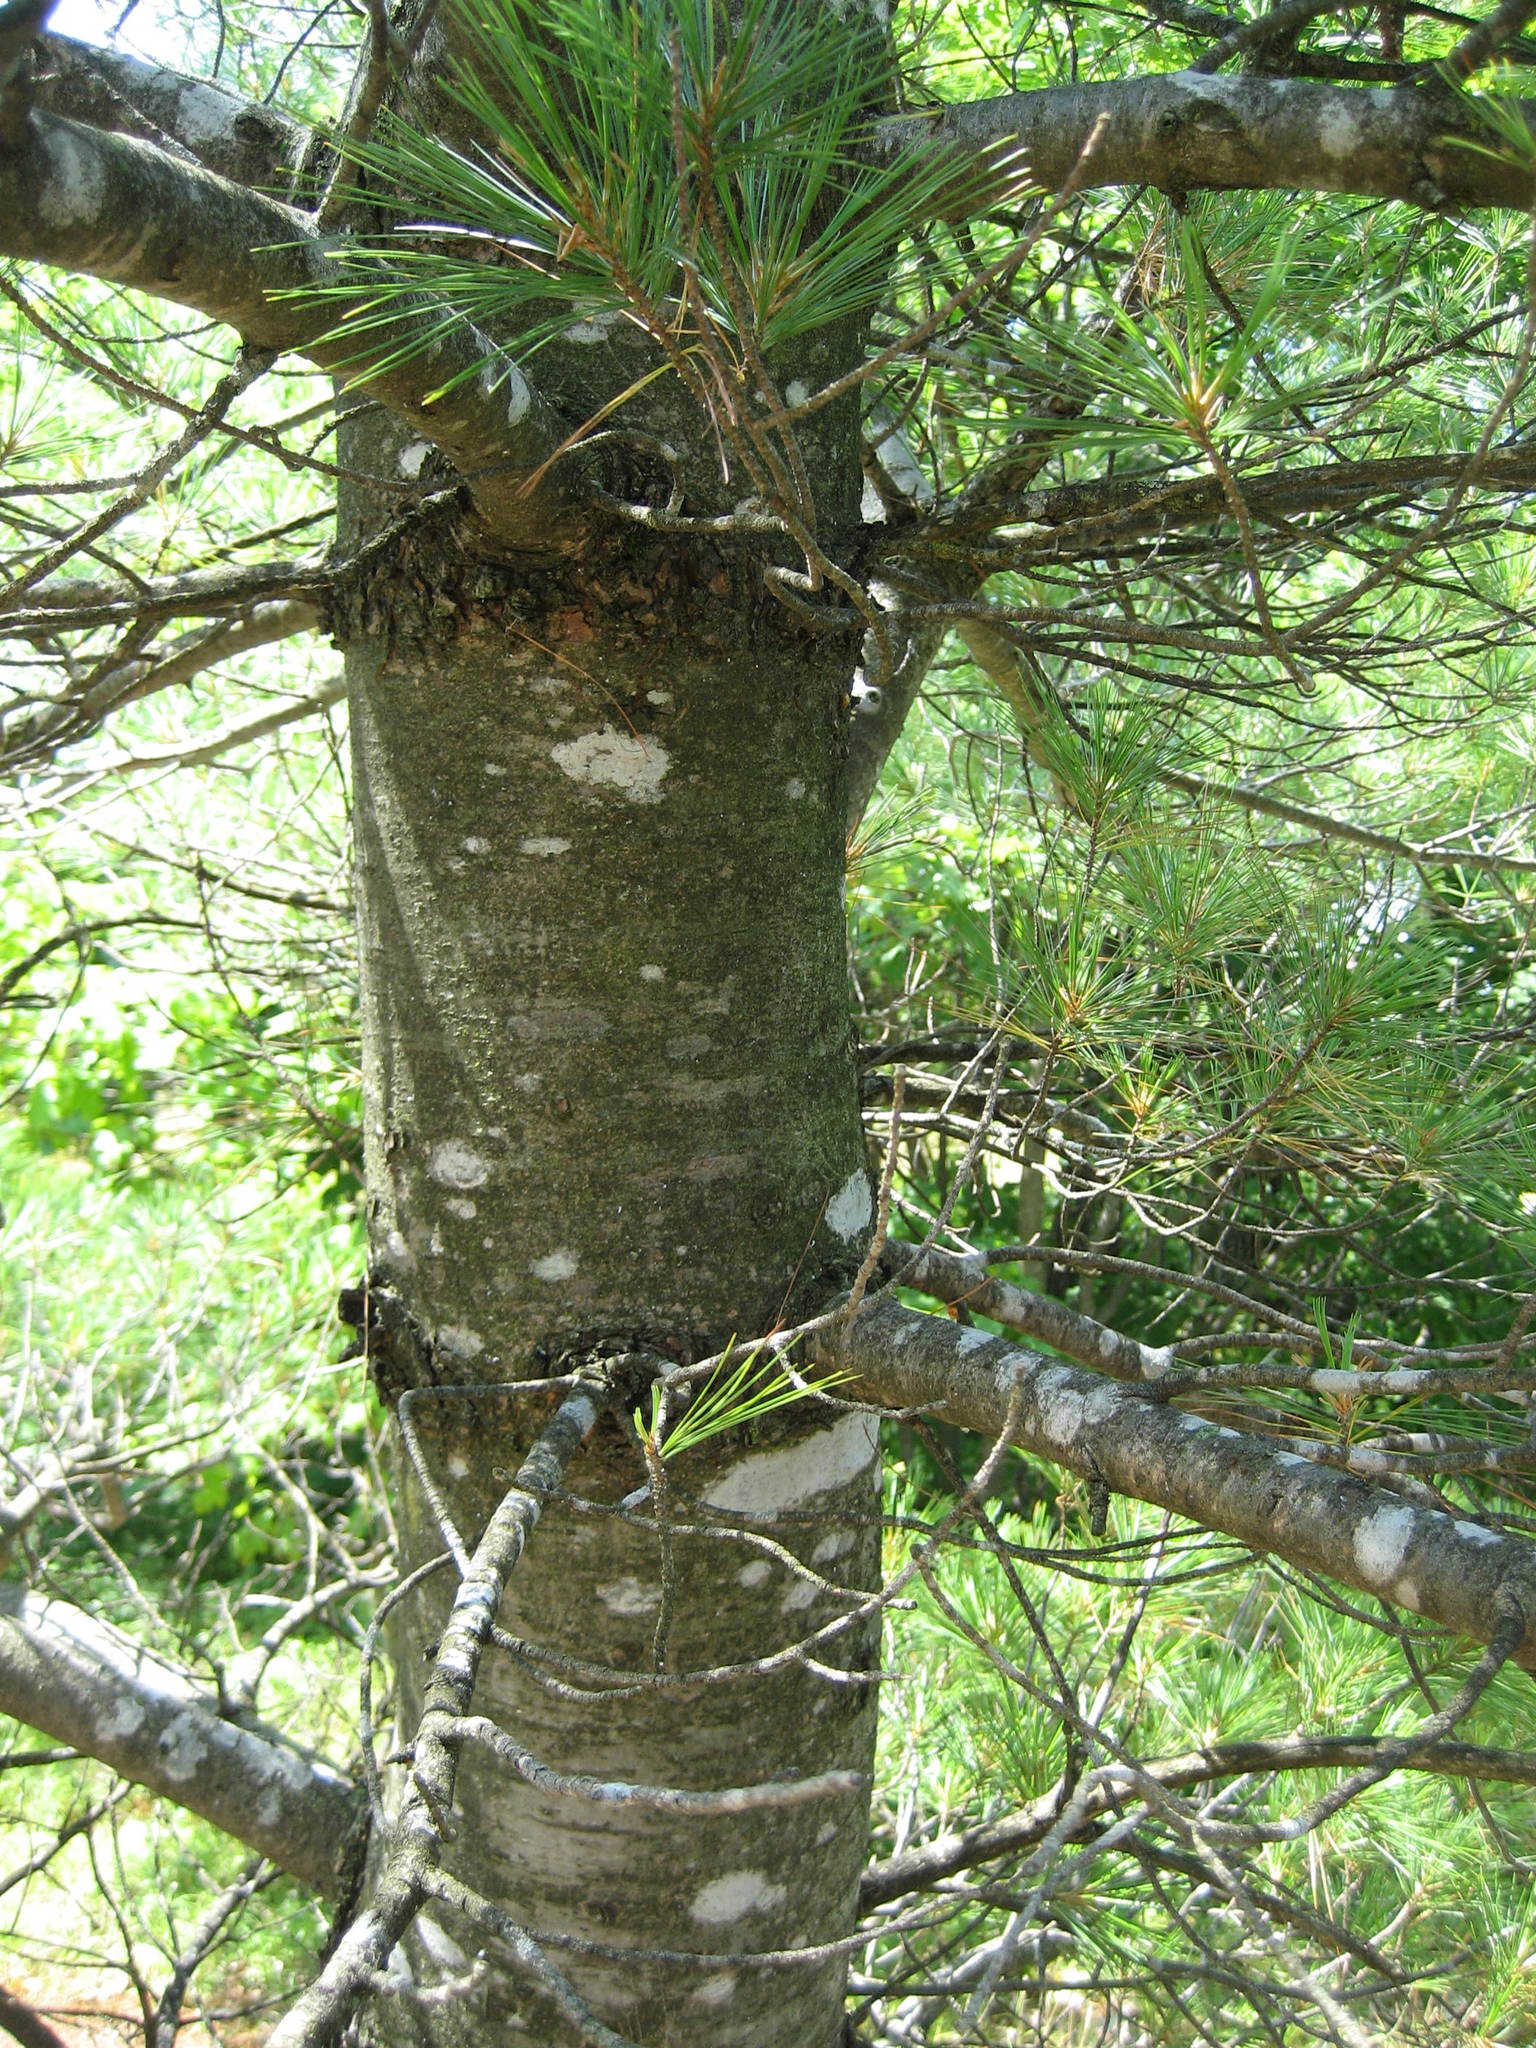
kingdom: Plantae
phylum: Tracheophyta
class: Pinopsida
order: Pinales
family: Pinaceae
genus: Pinus
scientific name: Pinus strobus
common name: Weymouth pine
